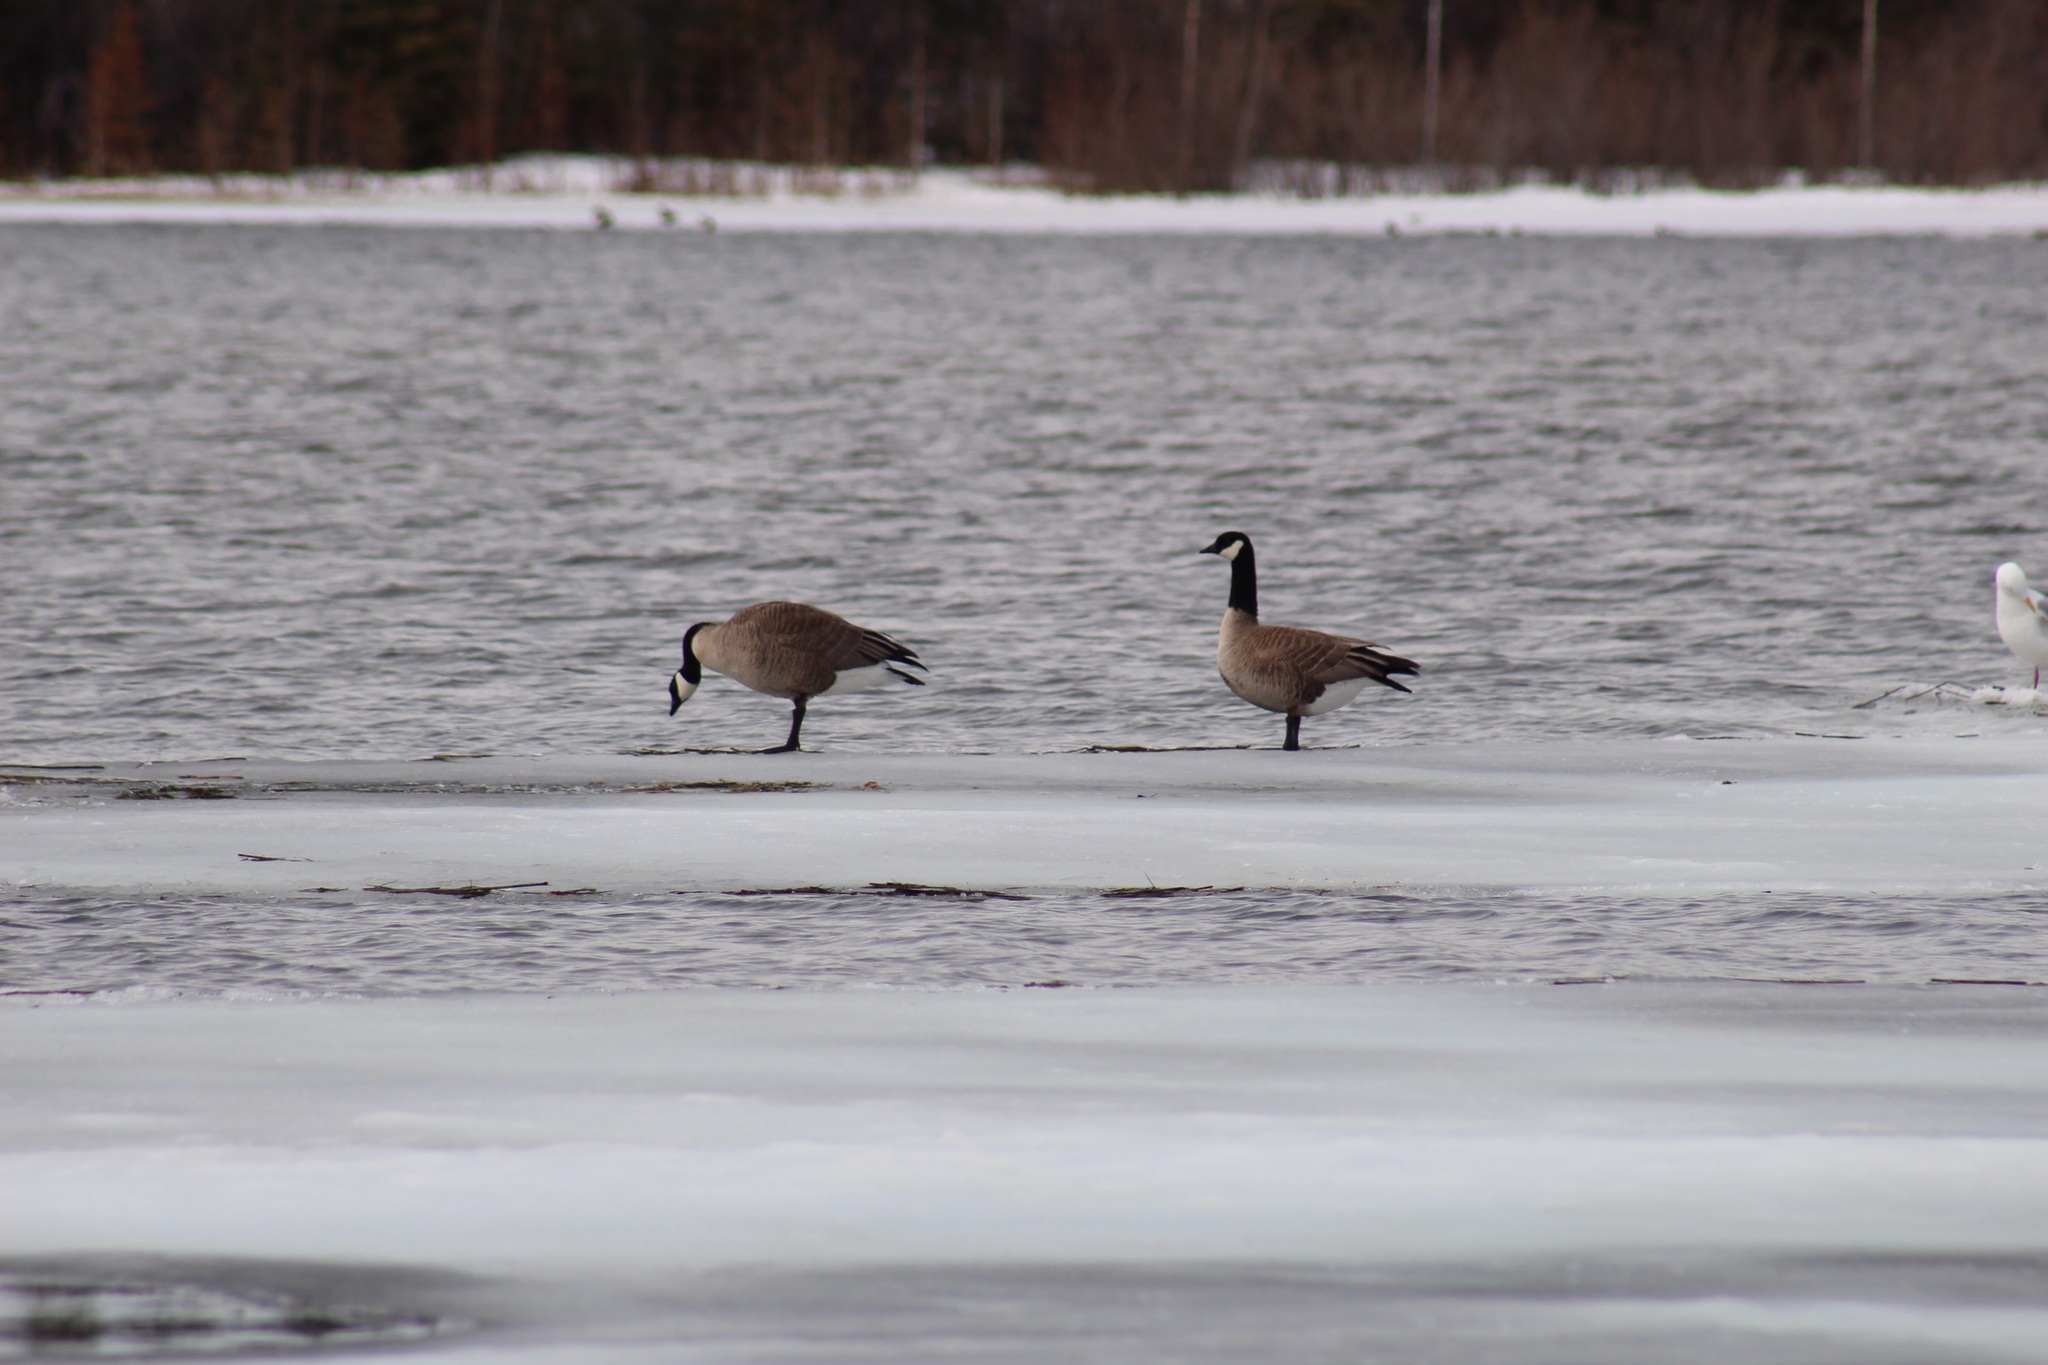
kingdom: Animalia
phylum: Chordata
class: Aves
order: Anseriformes
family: Anatidae
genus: Branta
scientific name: Branta hutchinsii
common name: Cackling goose
